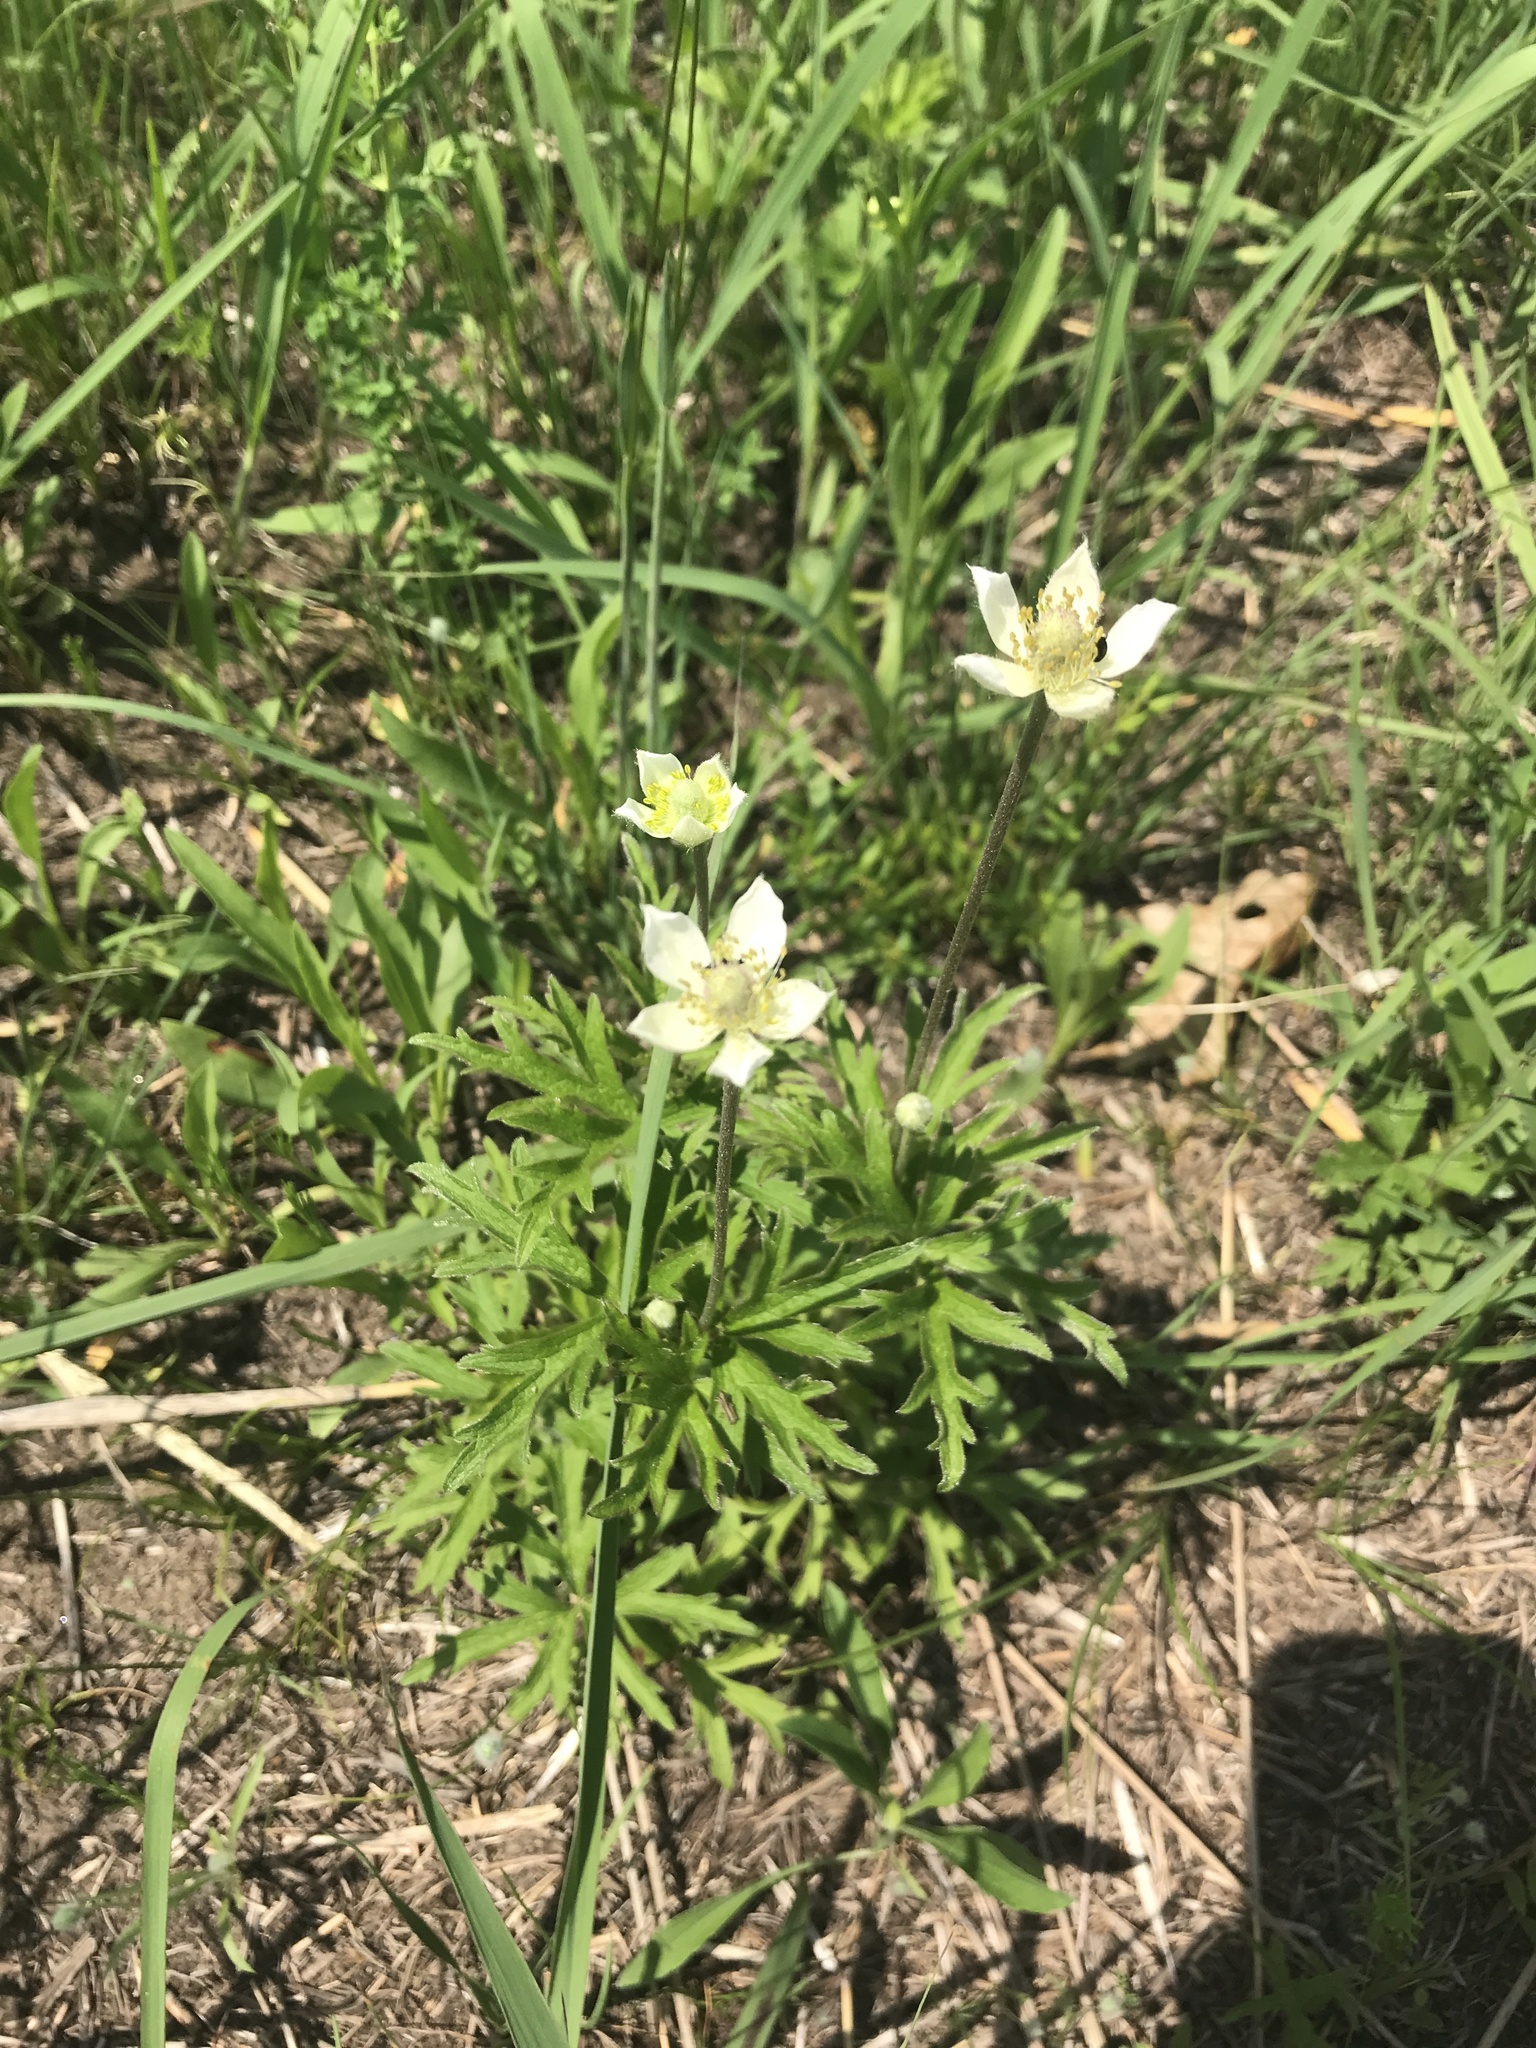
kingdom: Plantae
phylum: Tracheophyta
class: Magnoliopsida
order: Ranunculales
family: Ranunculaceae
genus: Anemone
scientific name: Anemone cylindrica
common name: Candle anemone
